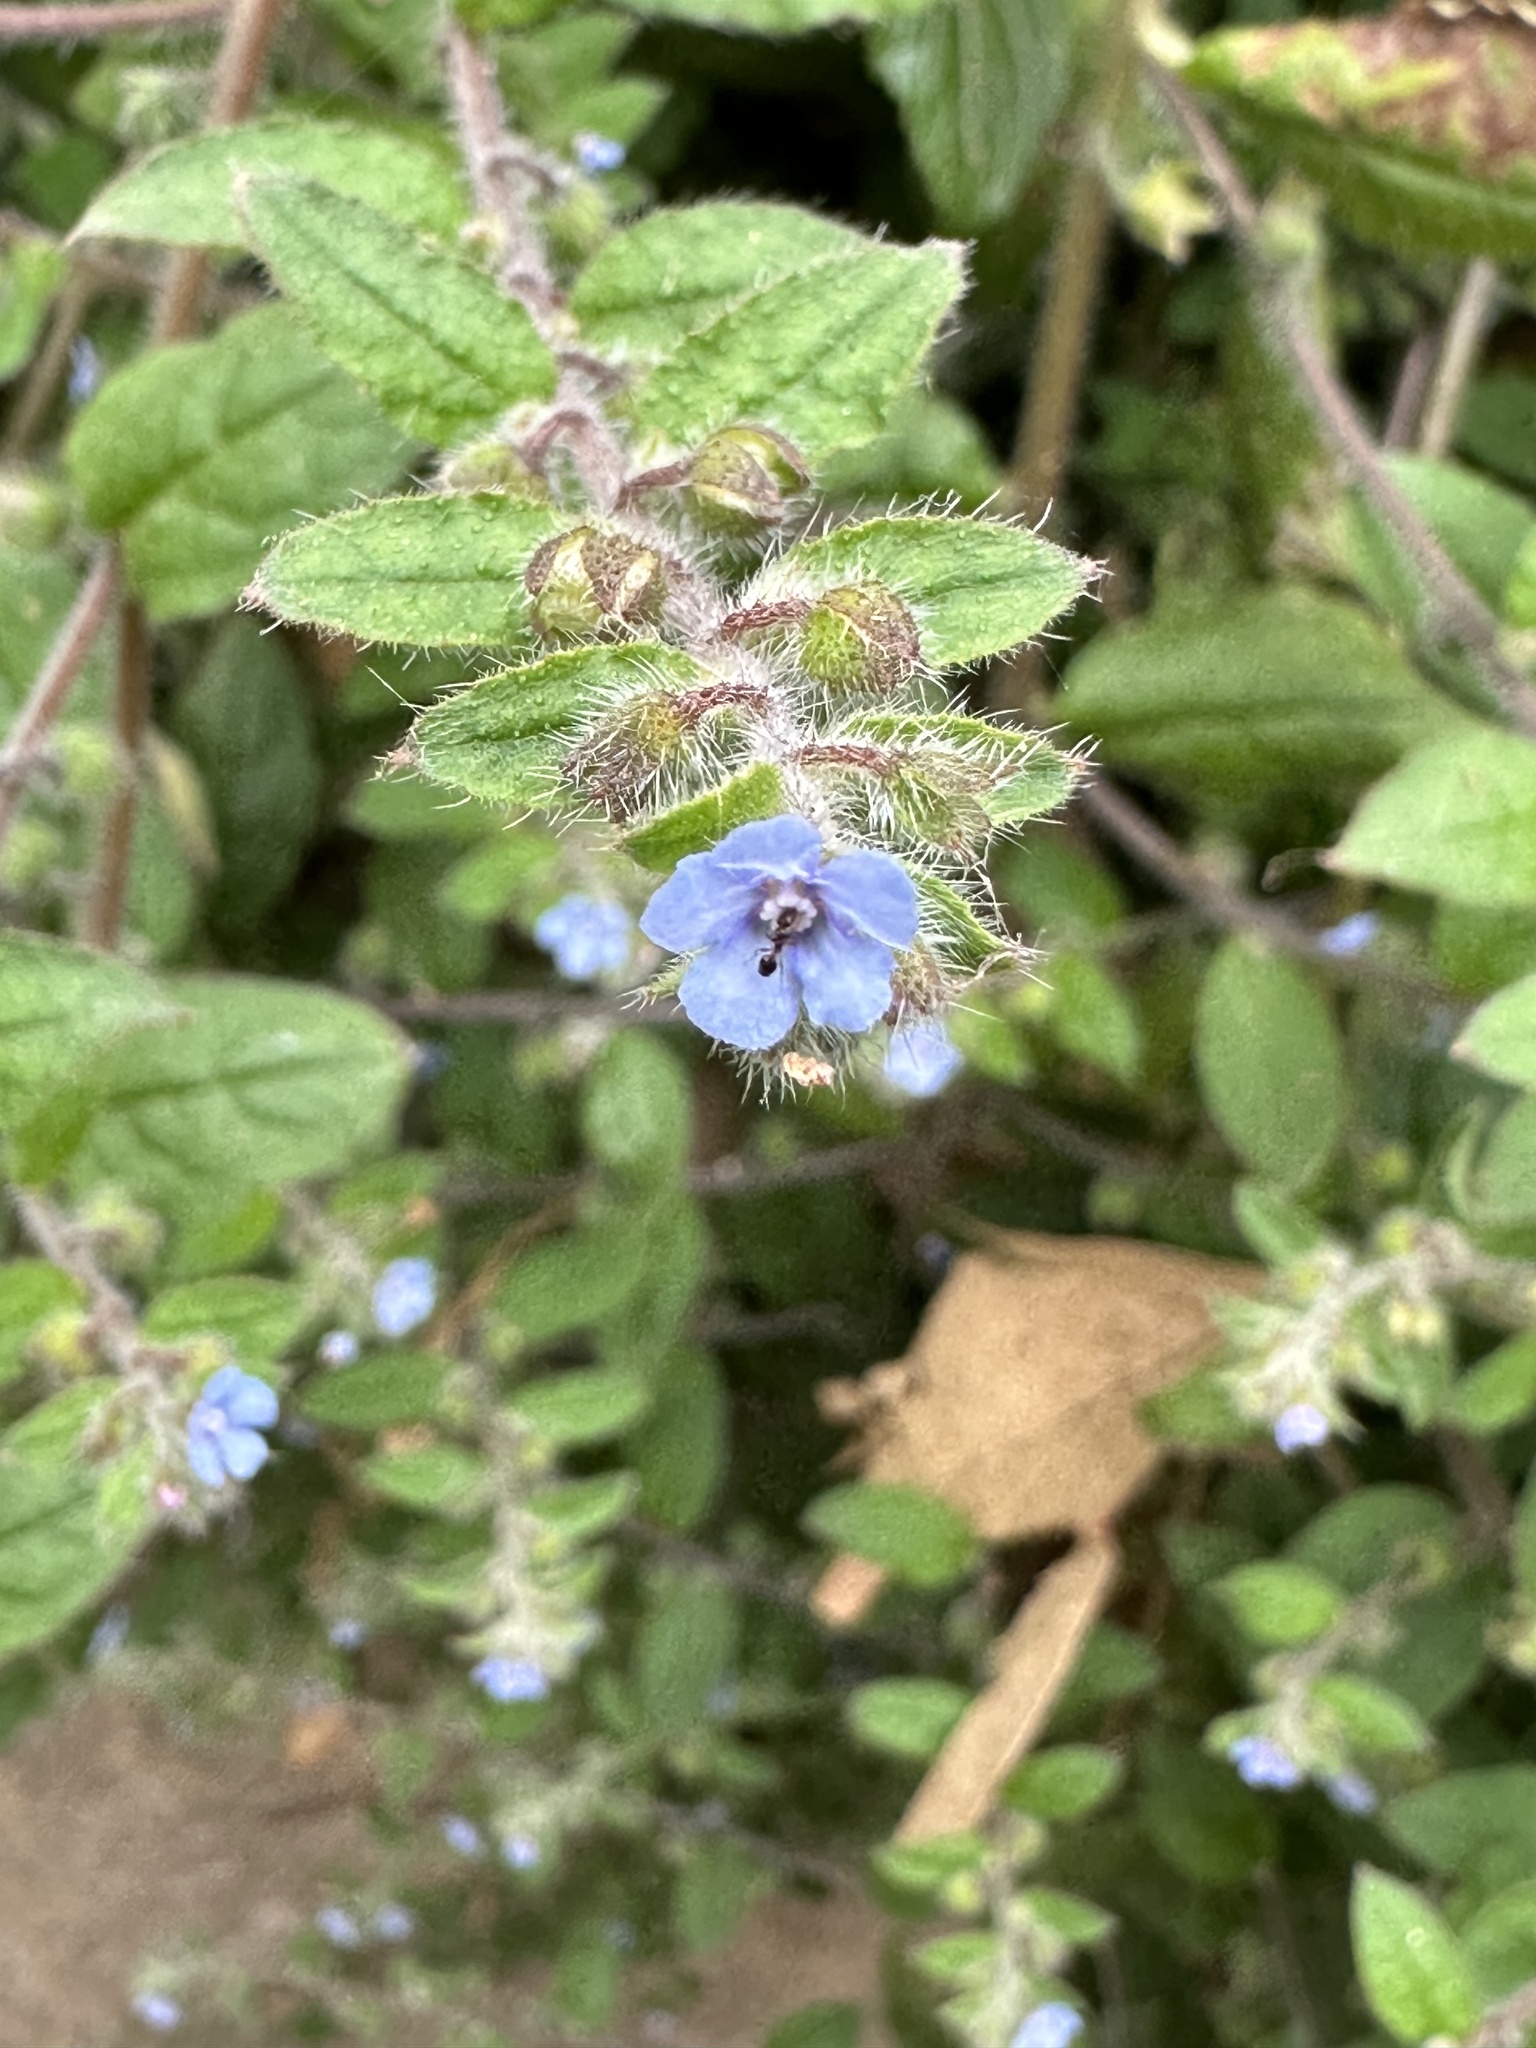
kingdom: Plantae
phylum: Tracheophyta
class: Magnoliopsida
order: Boraginales
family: Boraginaceae
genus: Thyrocarpus
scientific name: Thyrocarpus sampsonii
